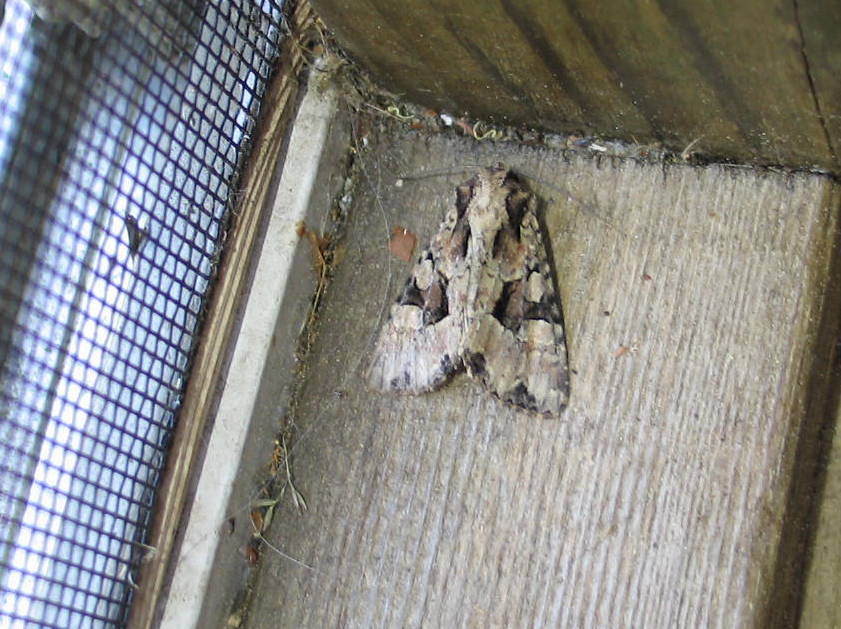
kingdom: Animalia
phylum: Arthropoda
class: Insecta
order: Lepidoptera
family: Noctuidae
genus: Apamea
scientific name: Apamea indocilis
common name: Ignorant apamea moth
